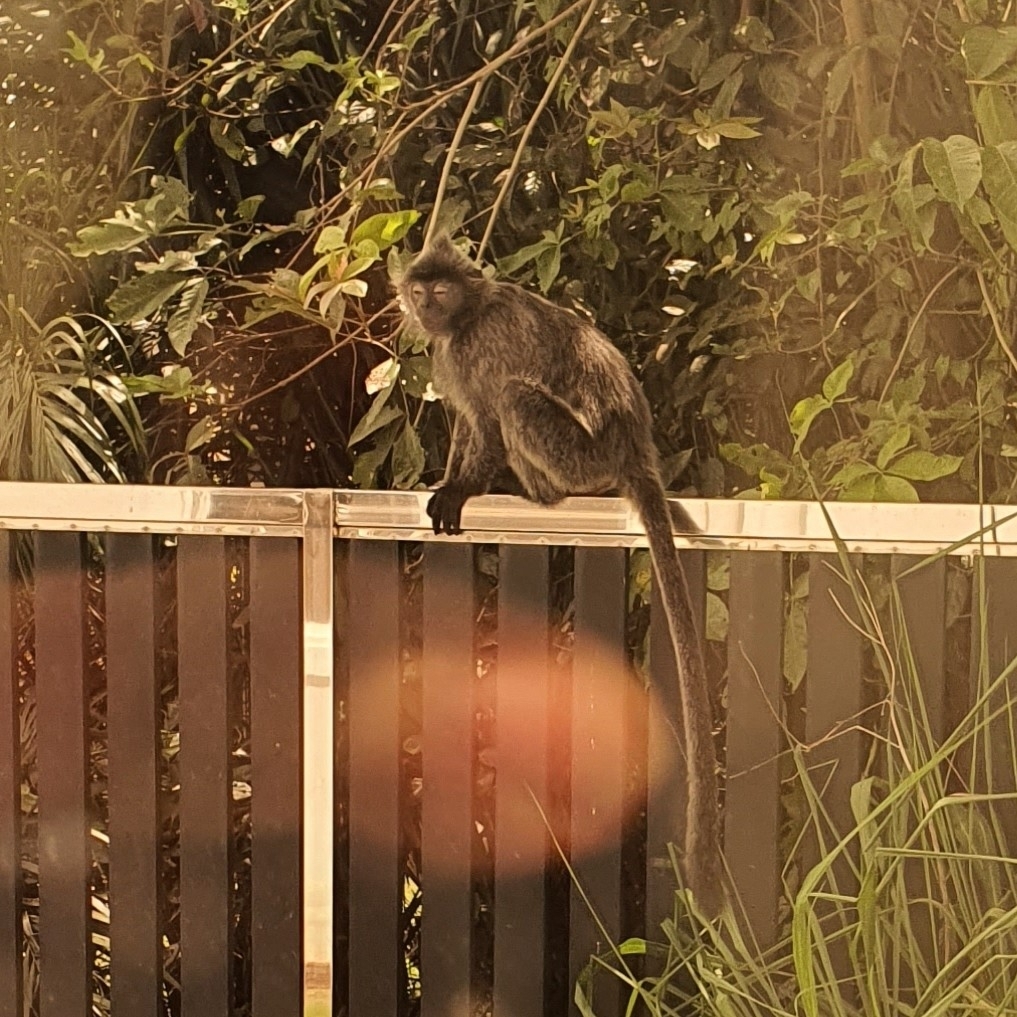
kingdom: Animalia
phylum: Chordata
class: Mammalia
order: Primates
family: Cercopithecidae
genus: Trachypithecus
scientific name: Trachypithecus cristatus
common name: Silvery lutung
